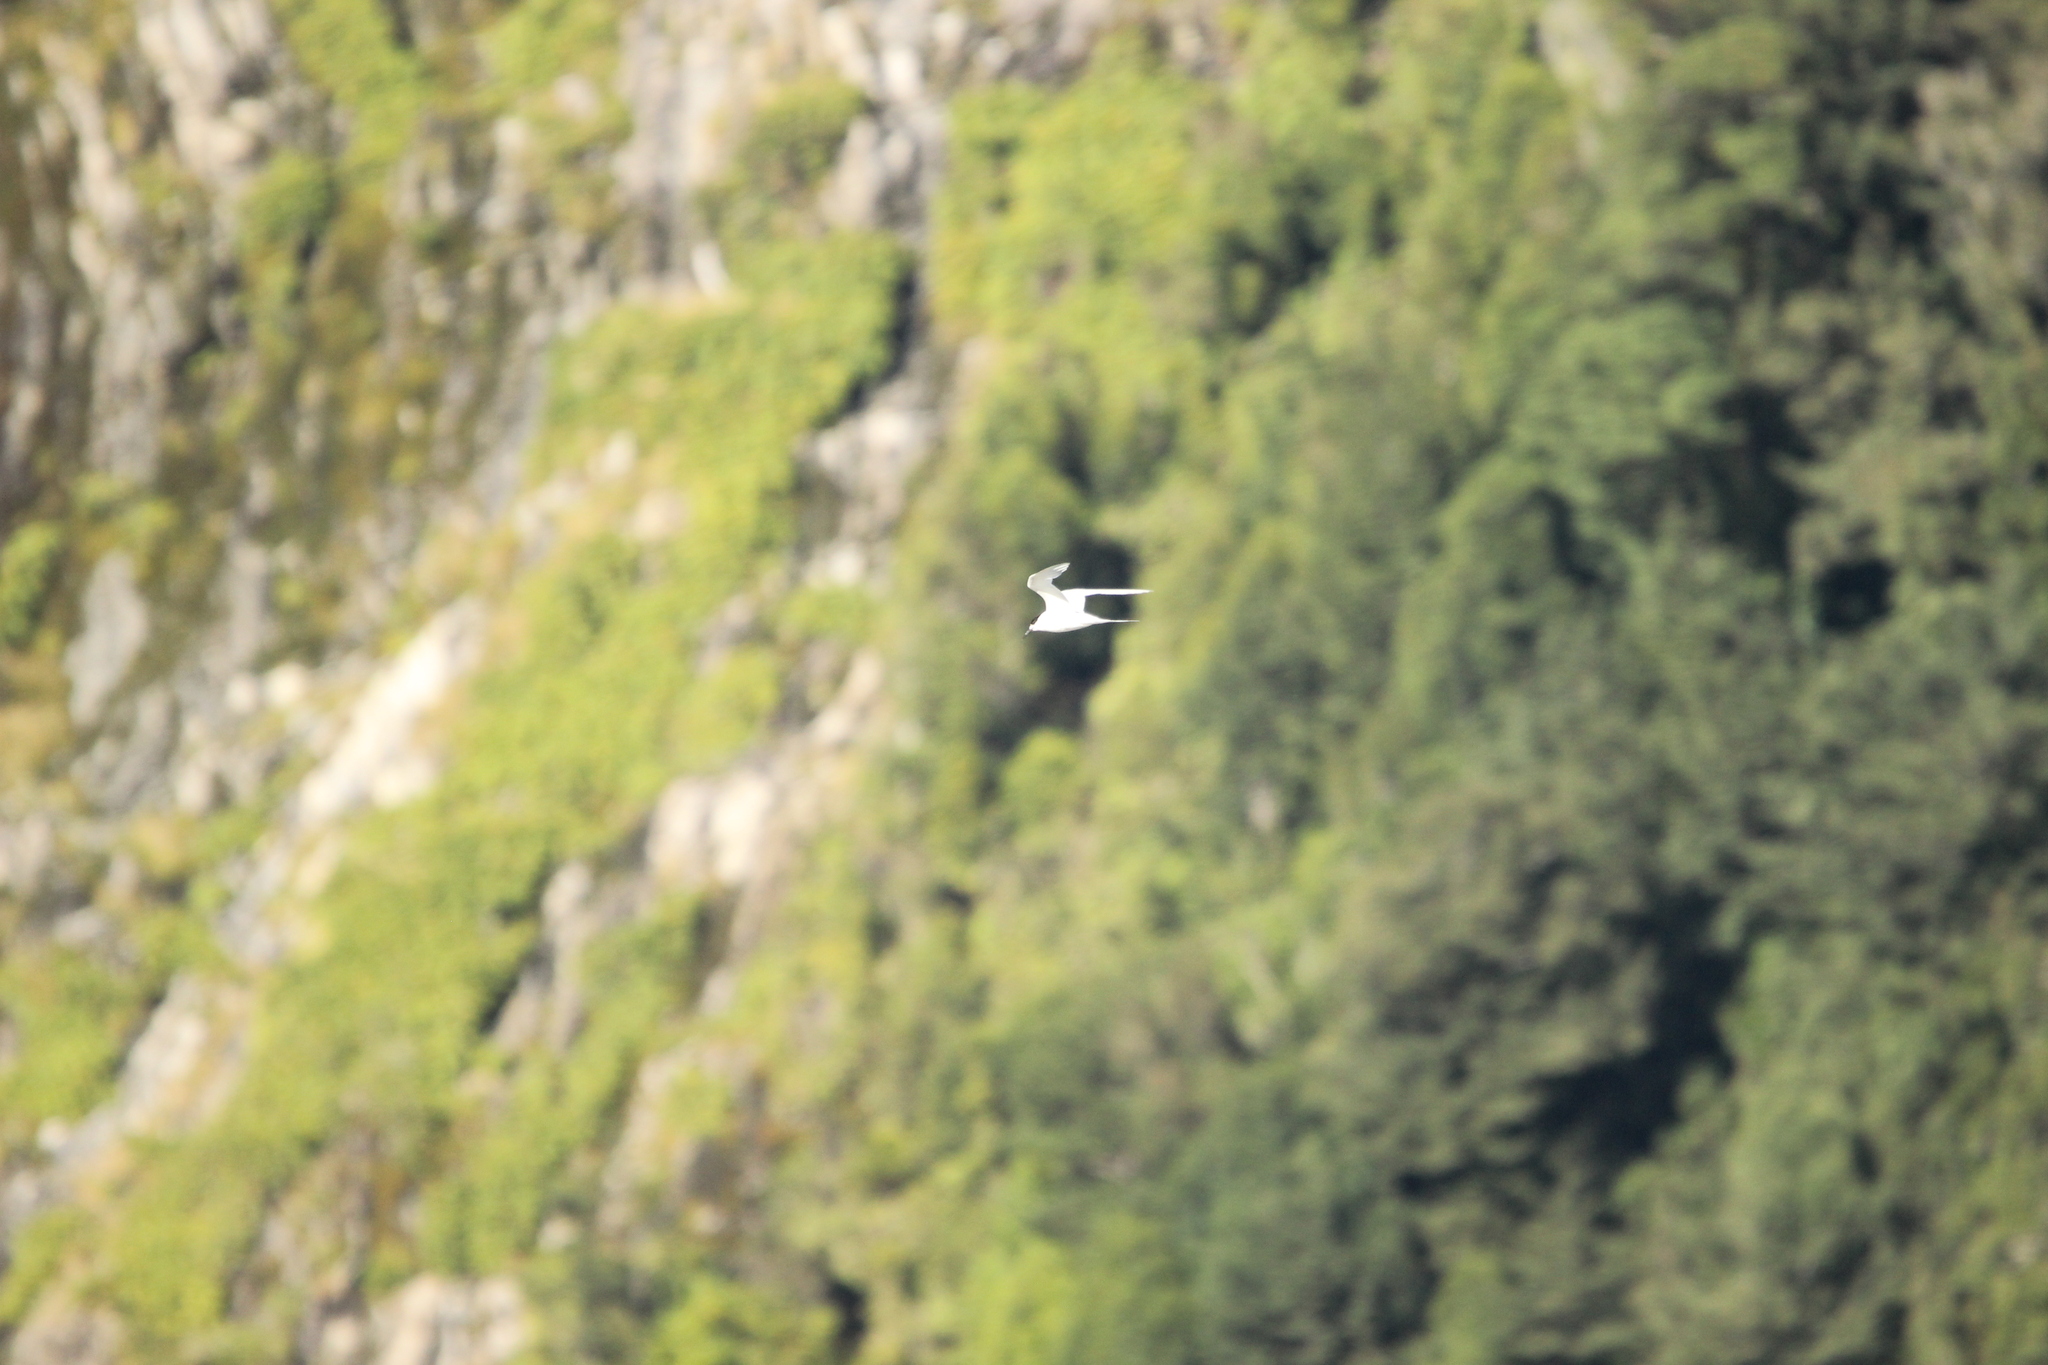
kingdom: Animalia
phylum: Chordata
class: Aves
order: Charadriiformes
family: Laridae
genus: Sterna
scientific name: Sterna striata
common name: White-fronted tern
